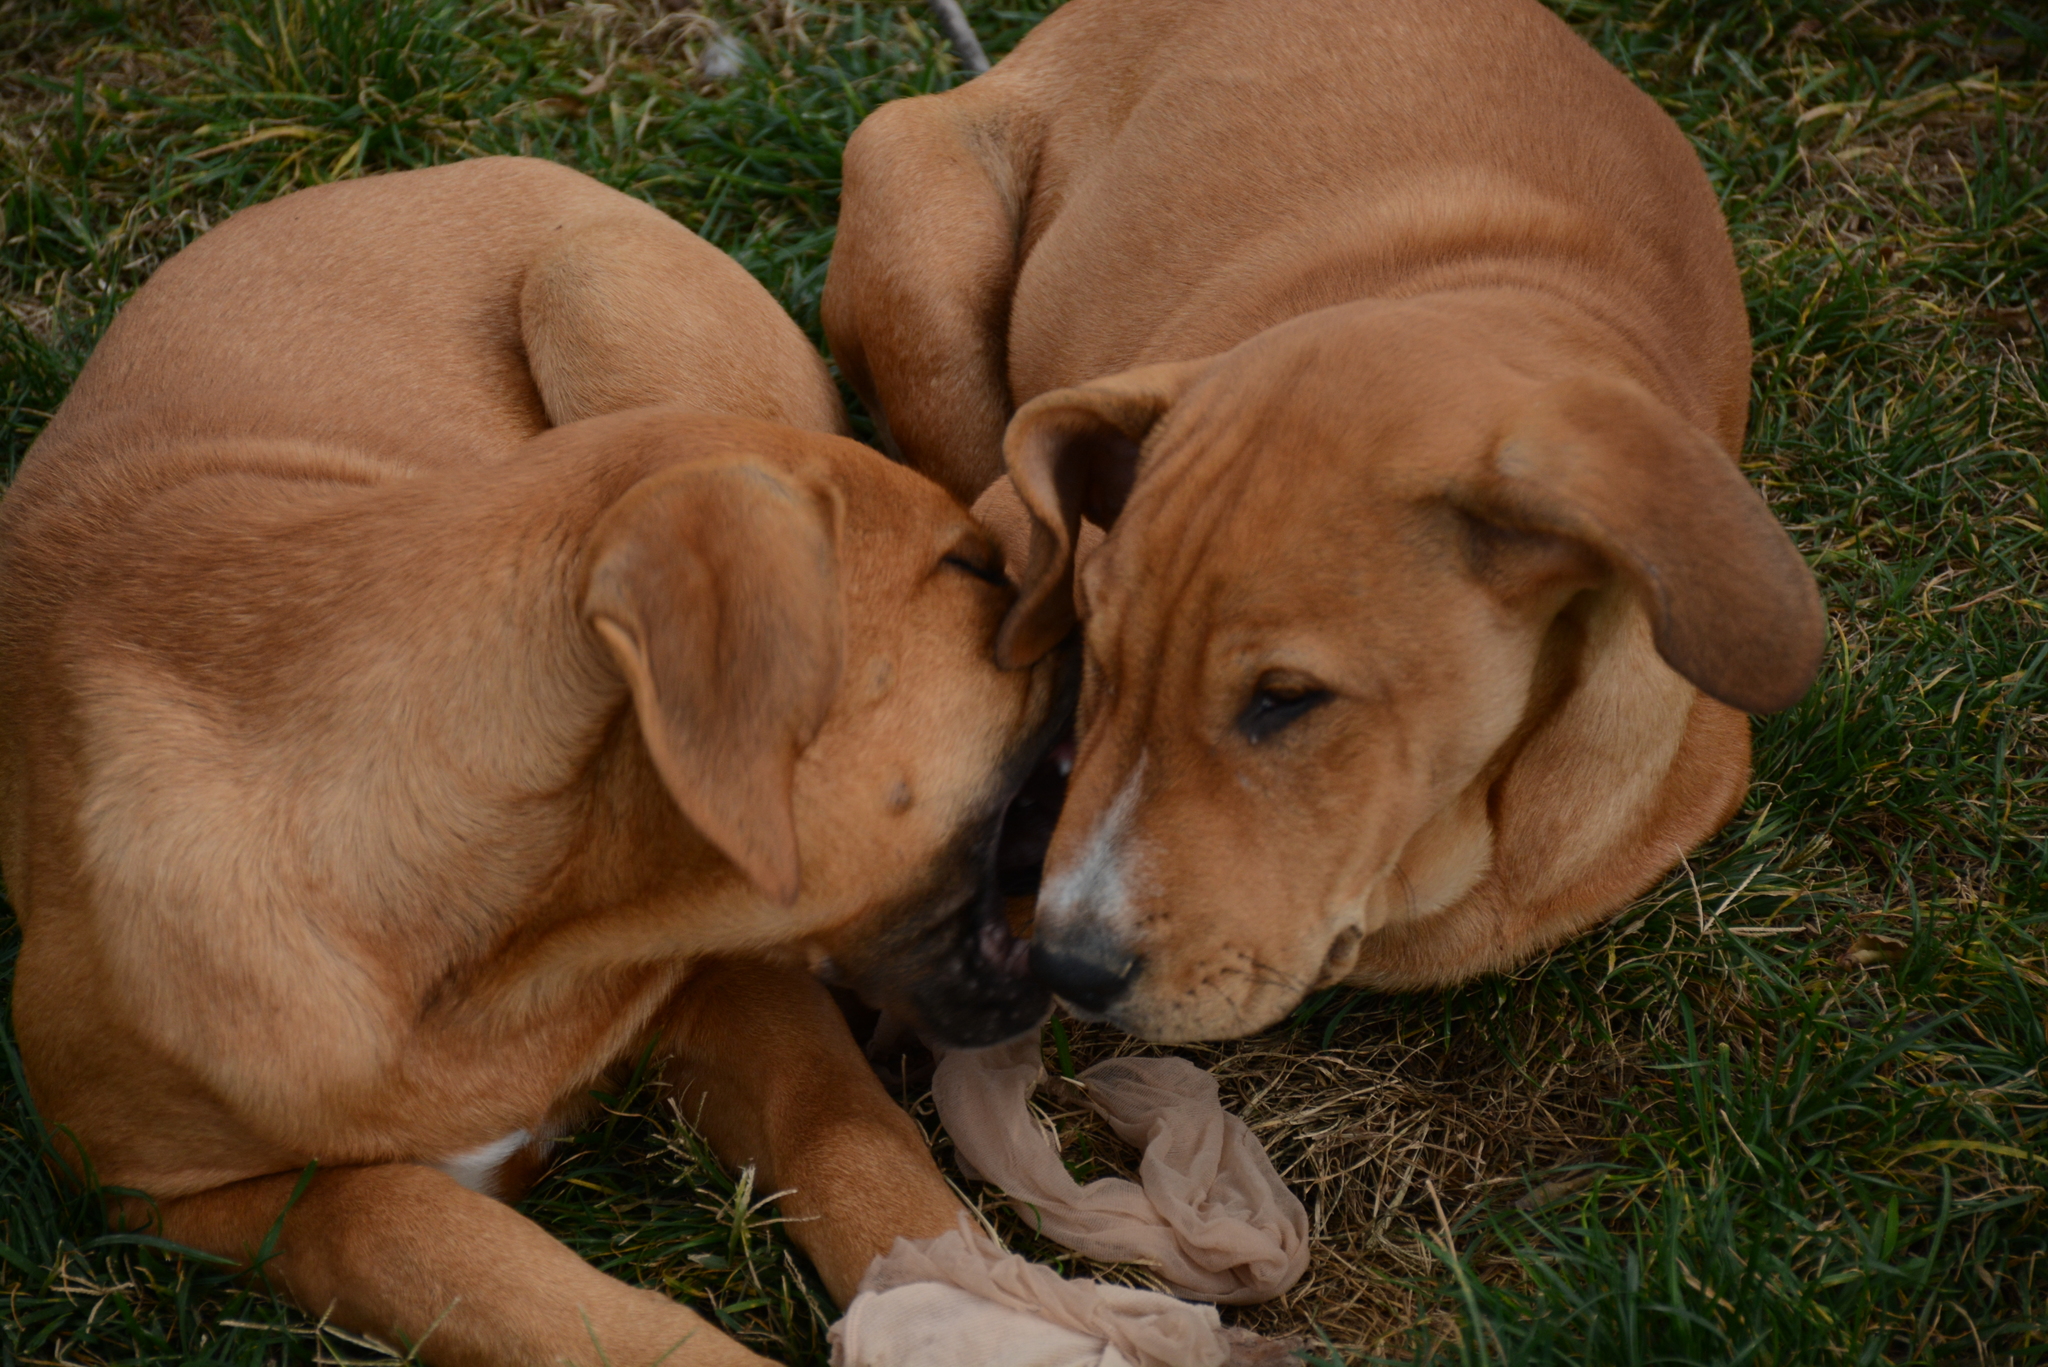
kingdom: Animalia
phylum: Chordata
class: Mammalia
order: Carnivora
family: Canidae
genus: Canis
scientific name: Canis lupus
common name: Gray wolf
